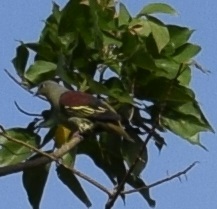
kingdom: Animalia
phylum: Chordata
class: Aves
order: Columbiformes
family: Columbidae
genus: Treron
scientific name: Treron affinis
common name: Grey-fronted green pigeon
